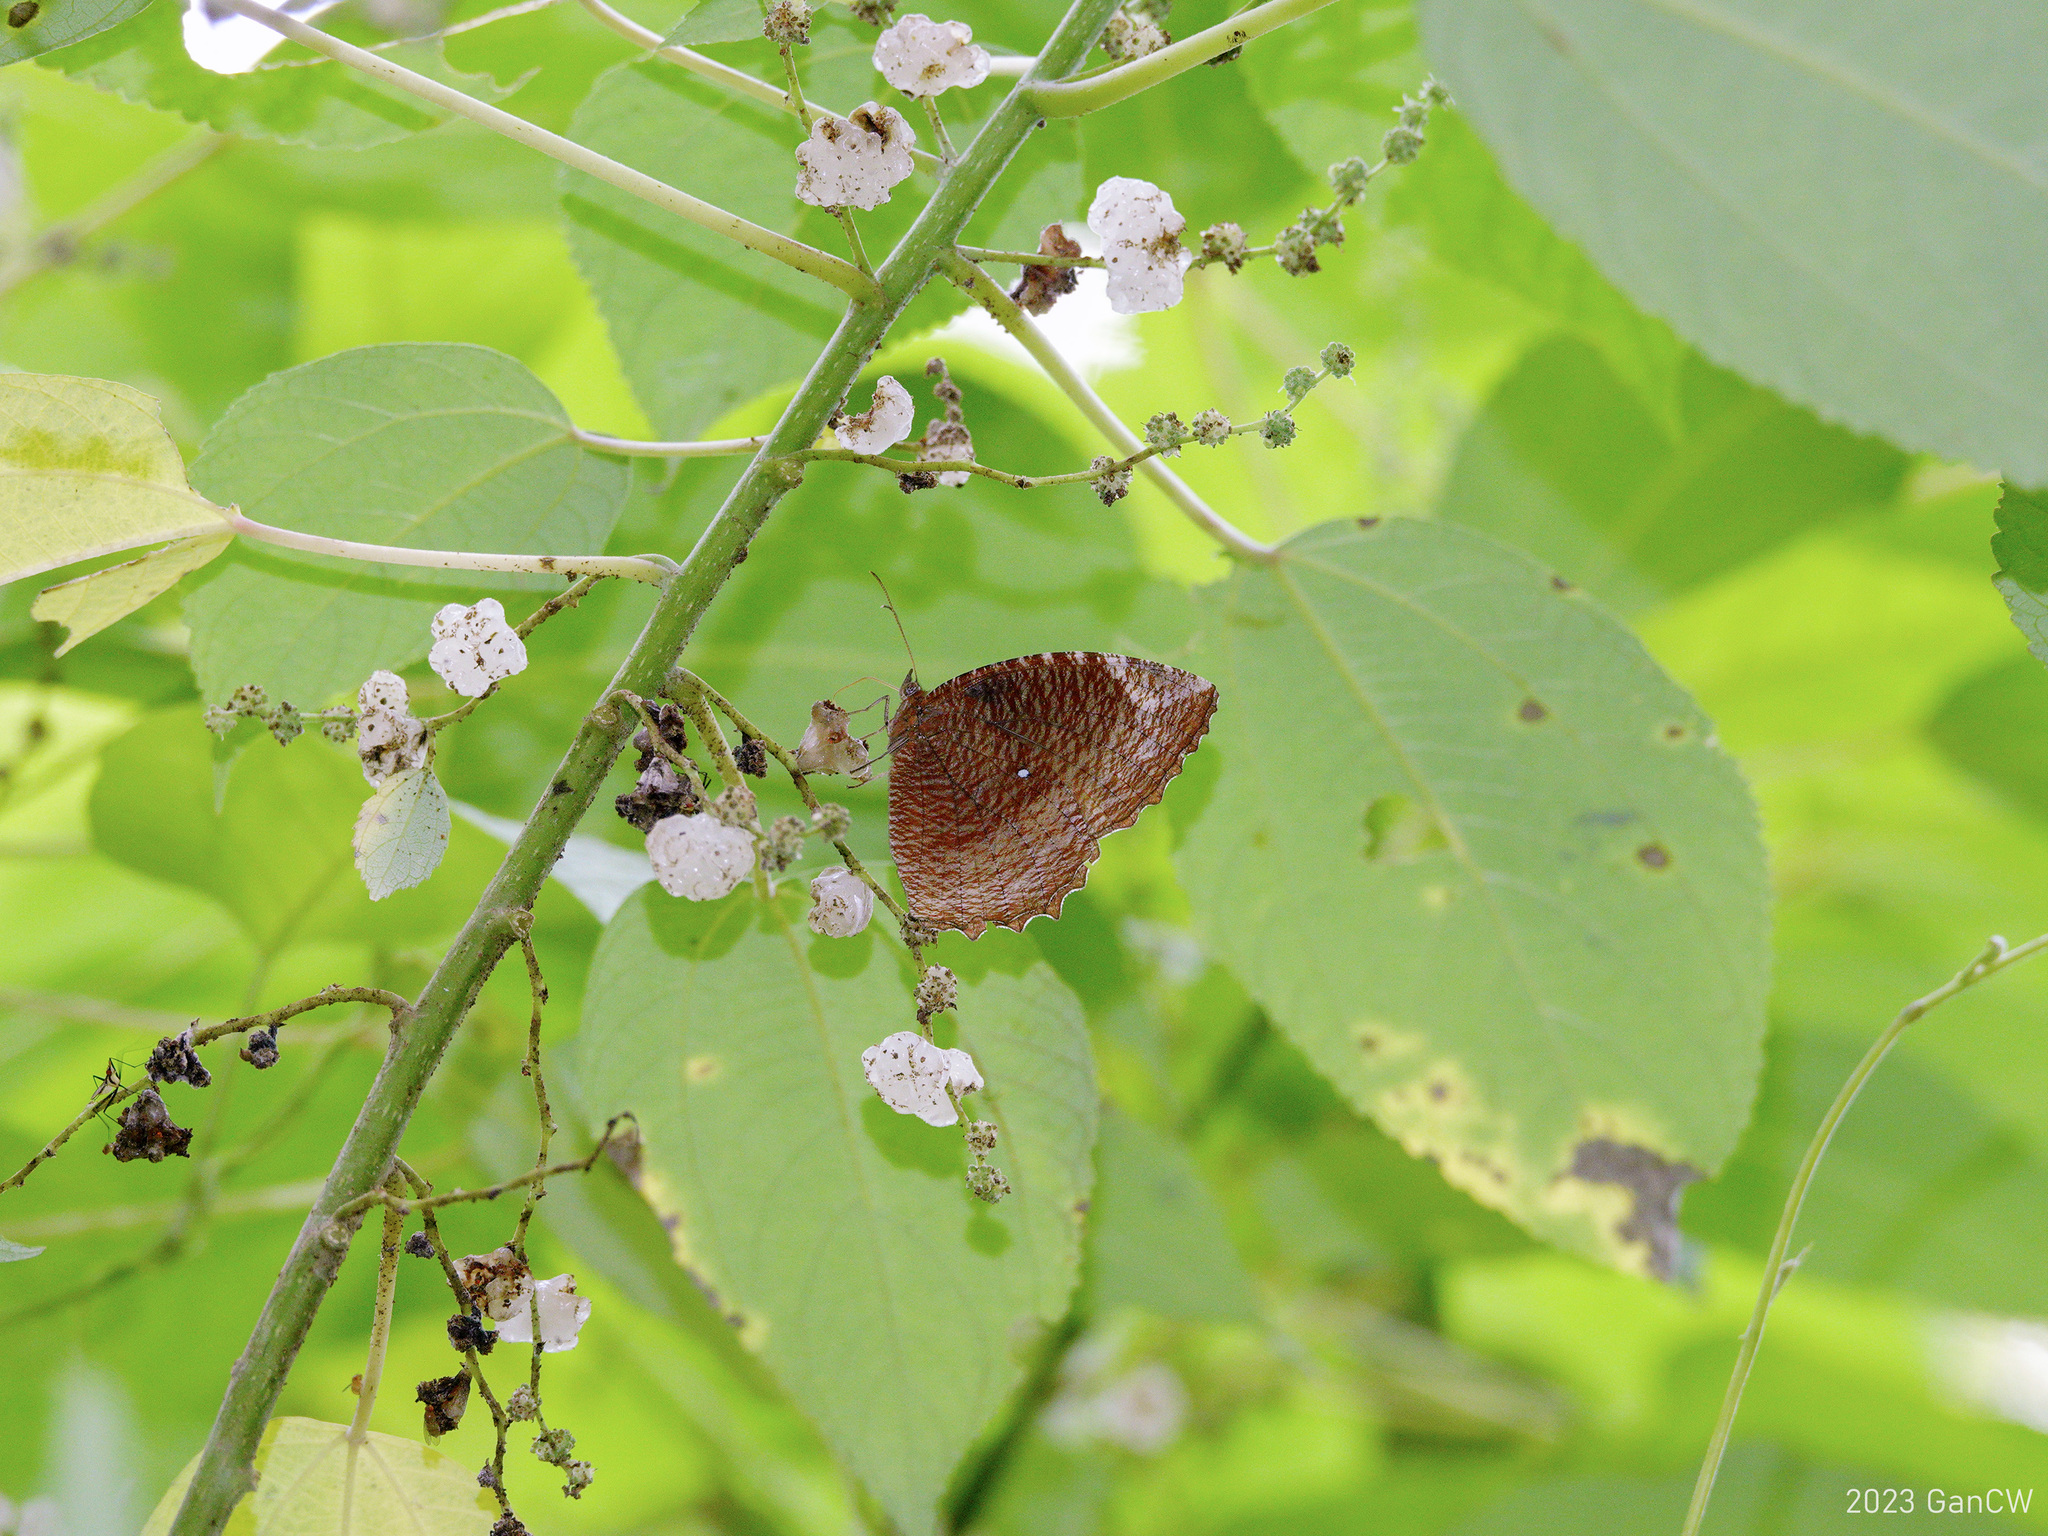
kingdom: Animalia
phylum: Arthropoda
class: Insecta
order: Lepidoptera
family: Nymphalidae
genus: Elymnias
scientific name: Elymnias hypermnestra
